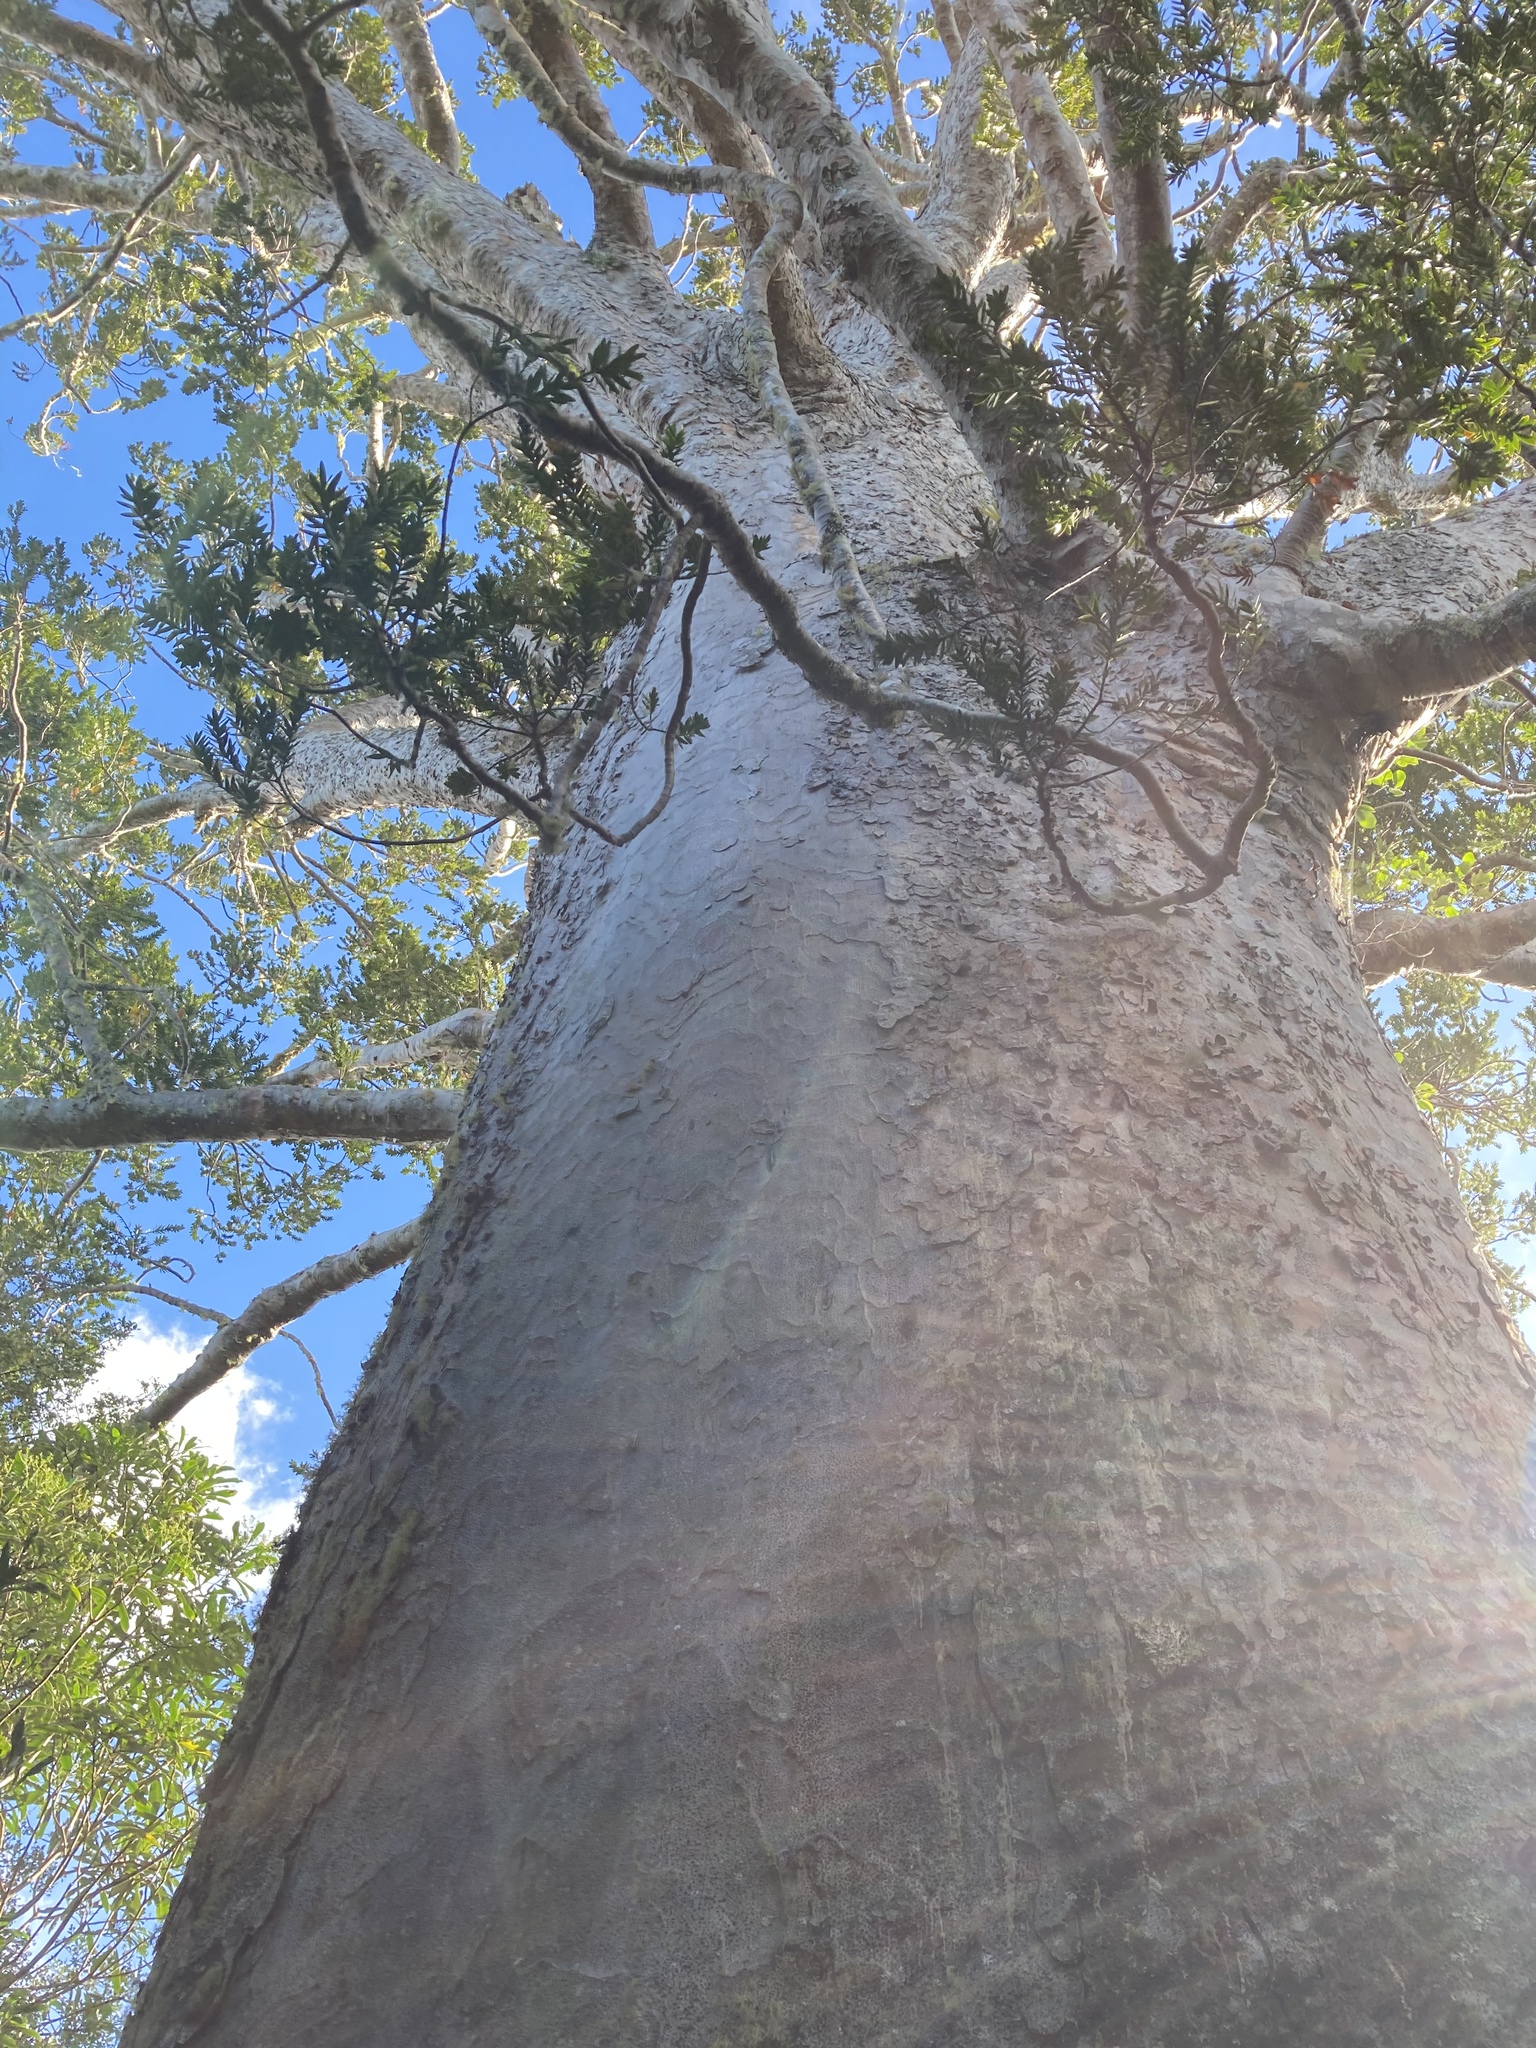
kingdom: Plantae
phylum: Tracheophyta
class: Pinopsida
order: Pinales
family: Araucariaceae
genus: Agathis
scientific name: Agathis australis
